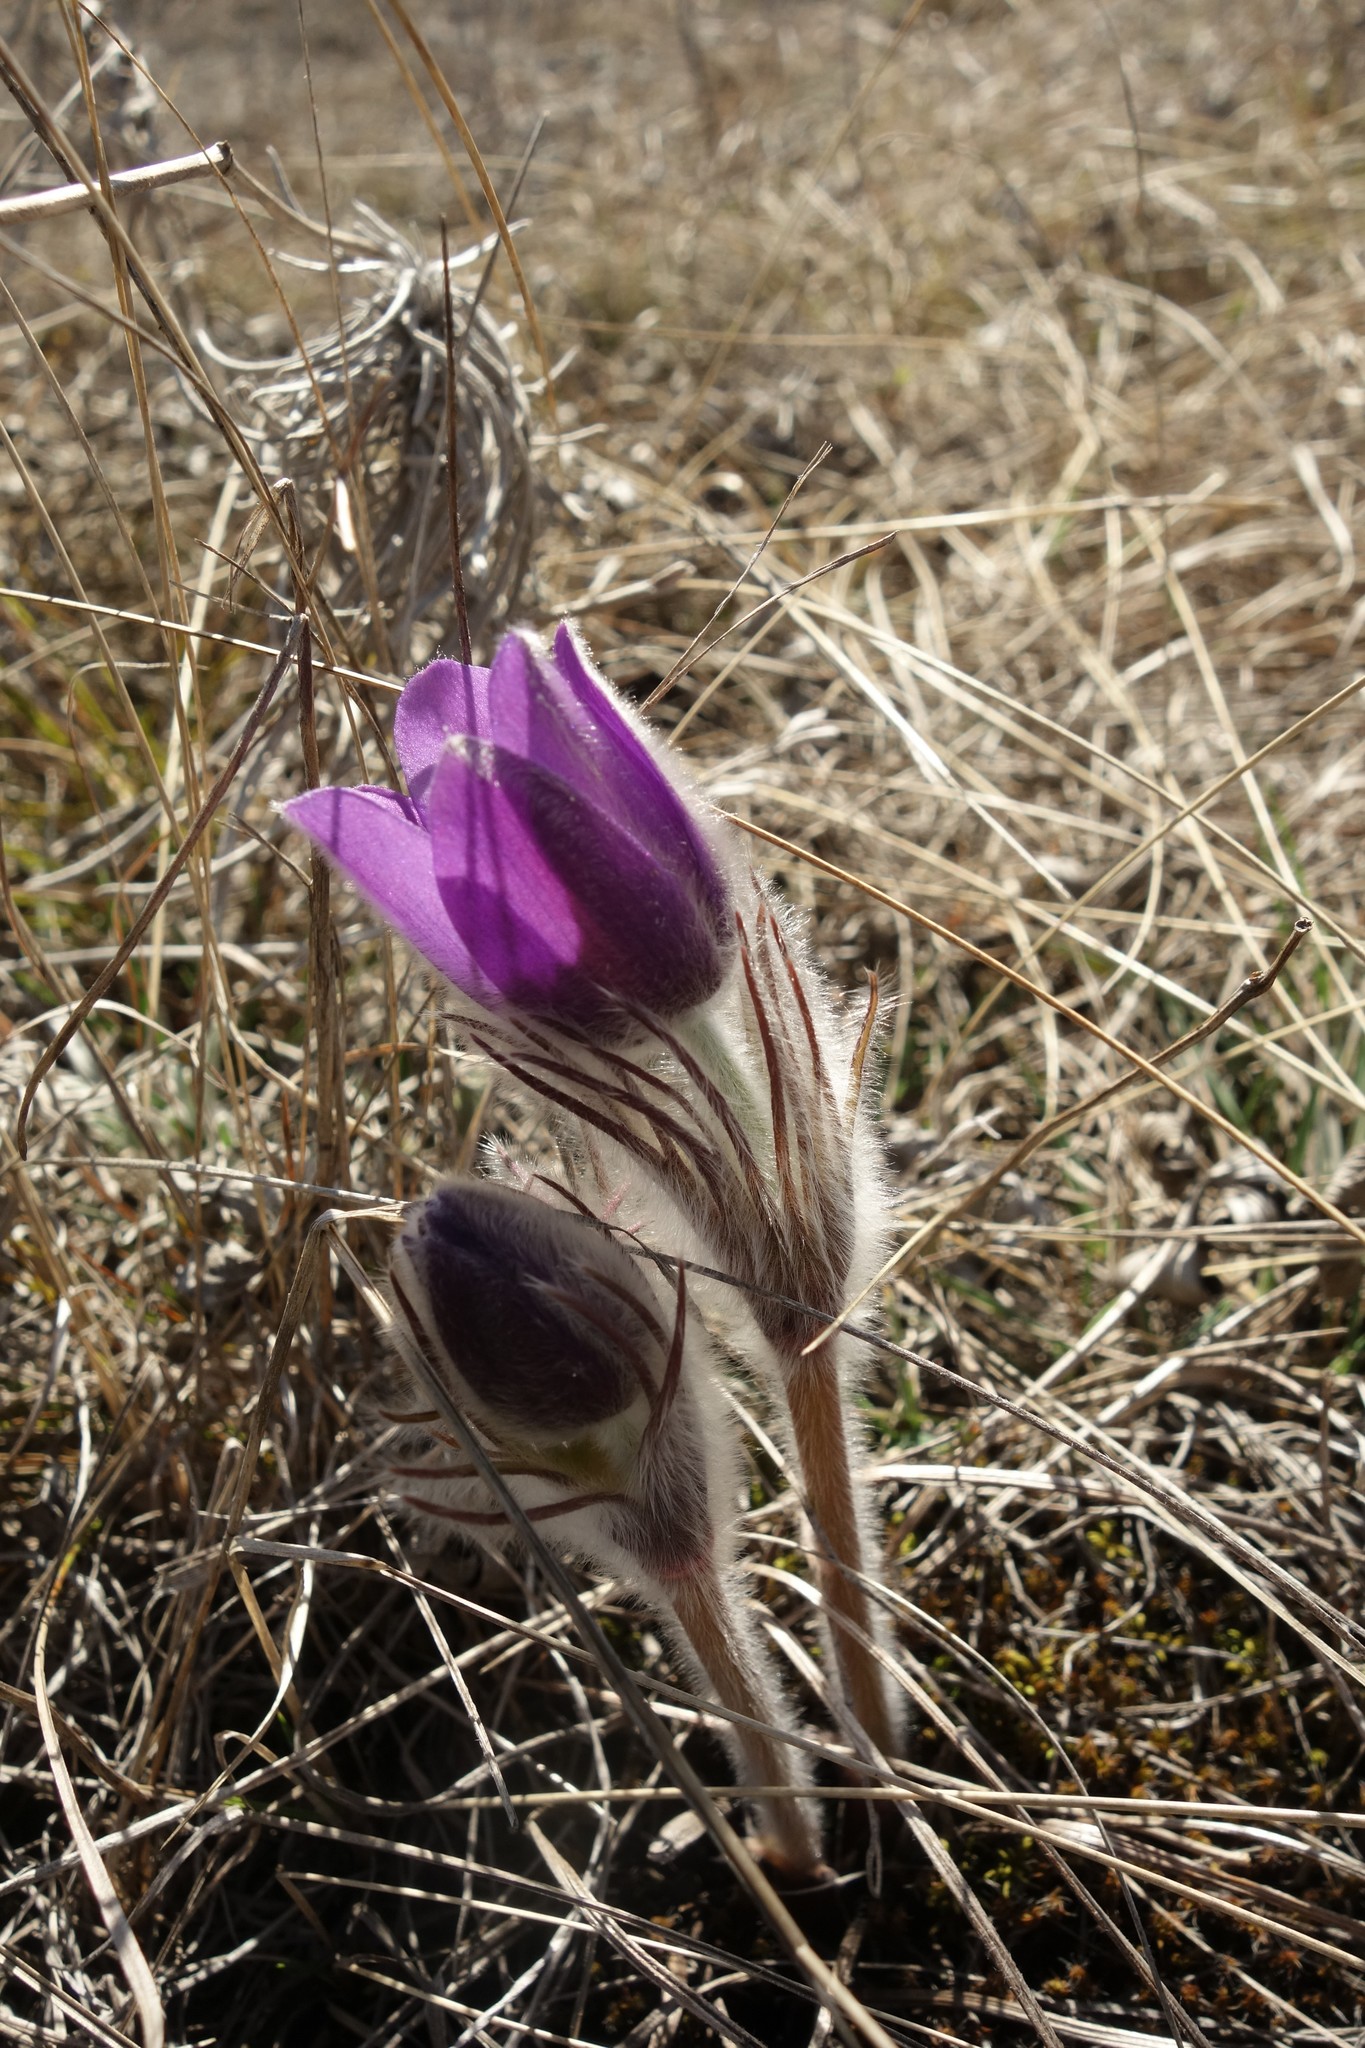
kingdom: Plantae
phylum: Tracheophyta
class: Magnoliopsida
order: Ranunculales
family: Ranunculaceae
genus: Pulsatilla
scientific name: Pulsatilla patens
